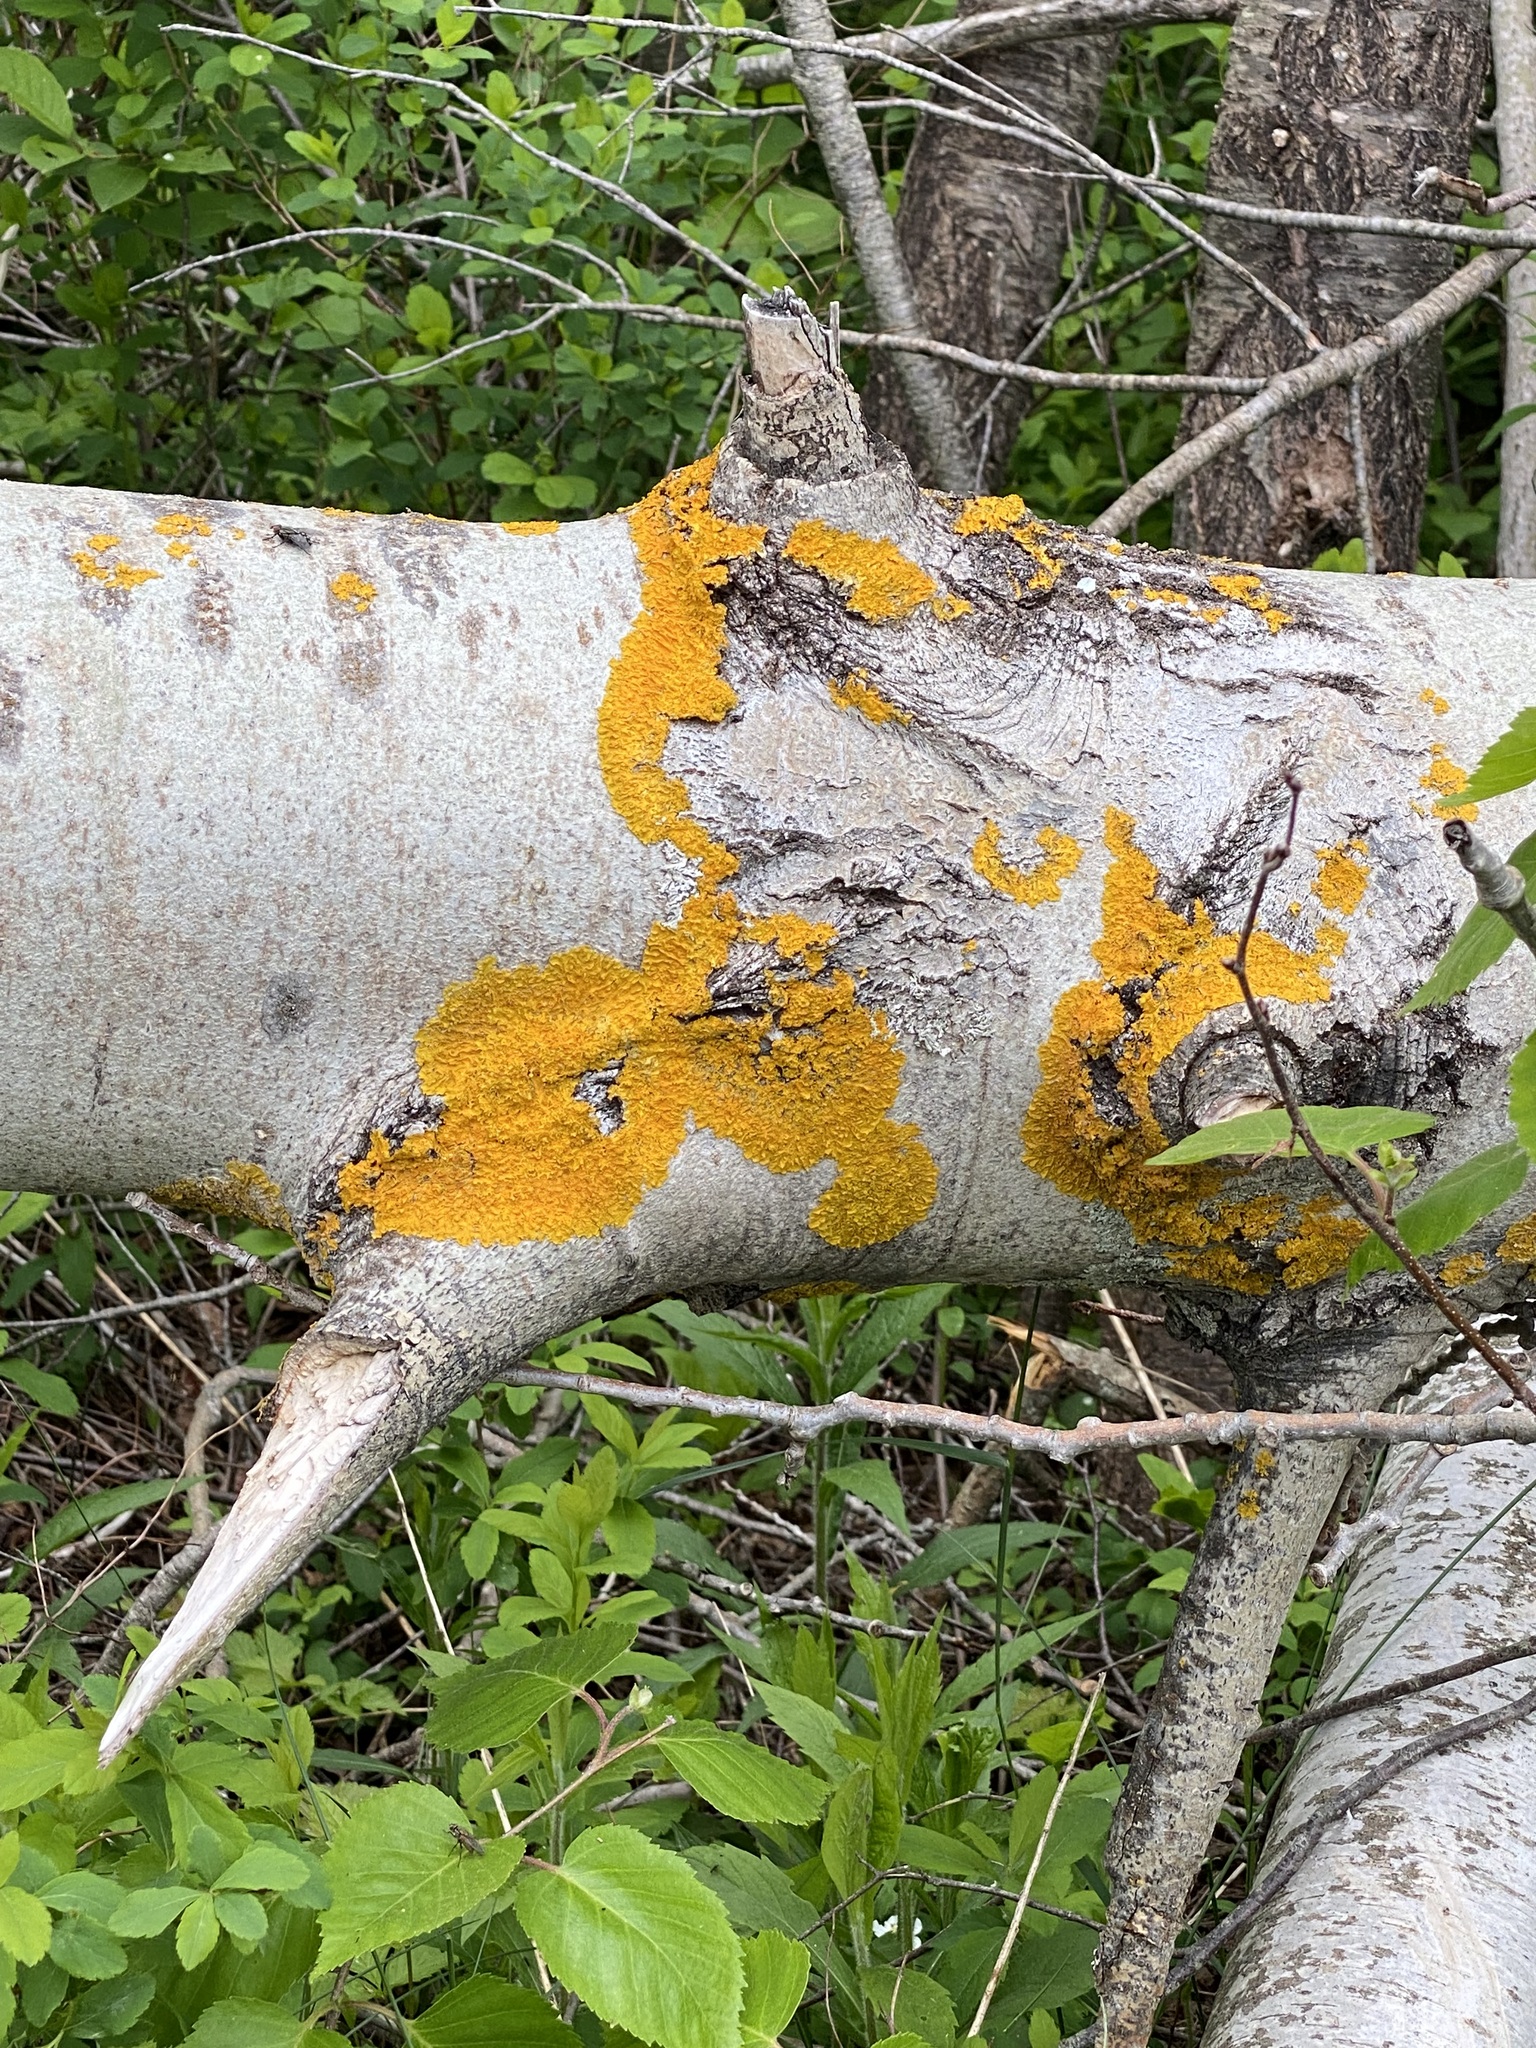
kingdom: Fungi
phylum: Ascomycota
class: Lecanoromycetes
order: Teloschistales
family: Teloschistaceae
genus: Xanthoria
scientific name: Xanthoria parietina
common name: Common orange lichen
